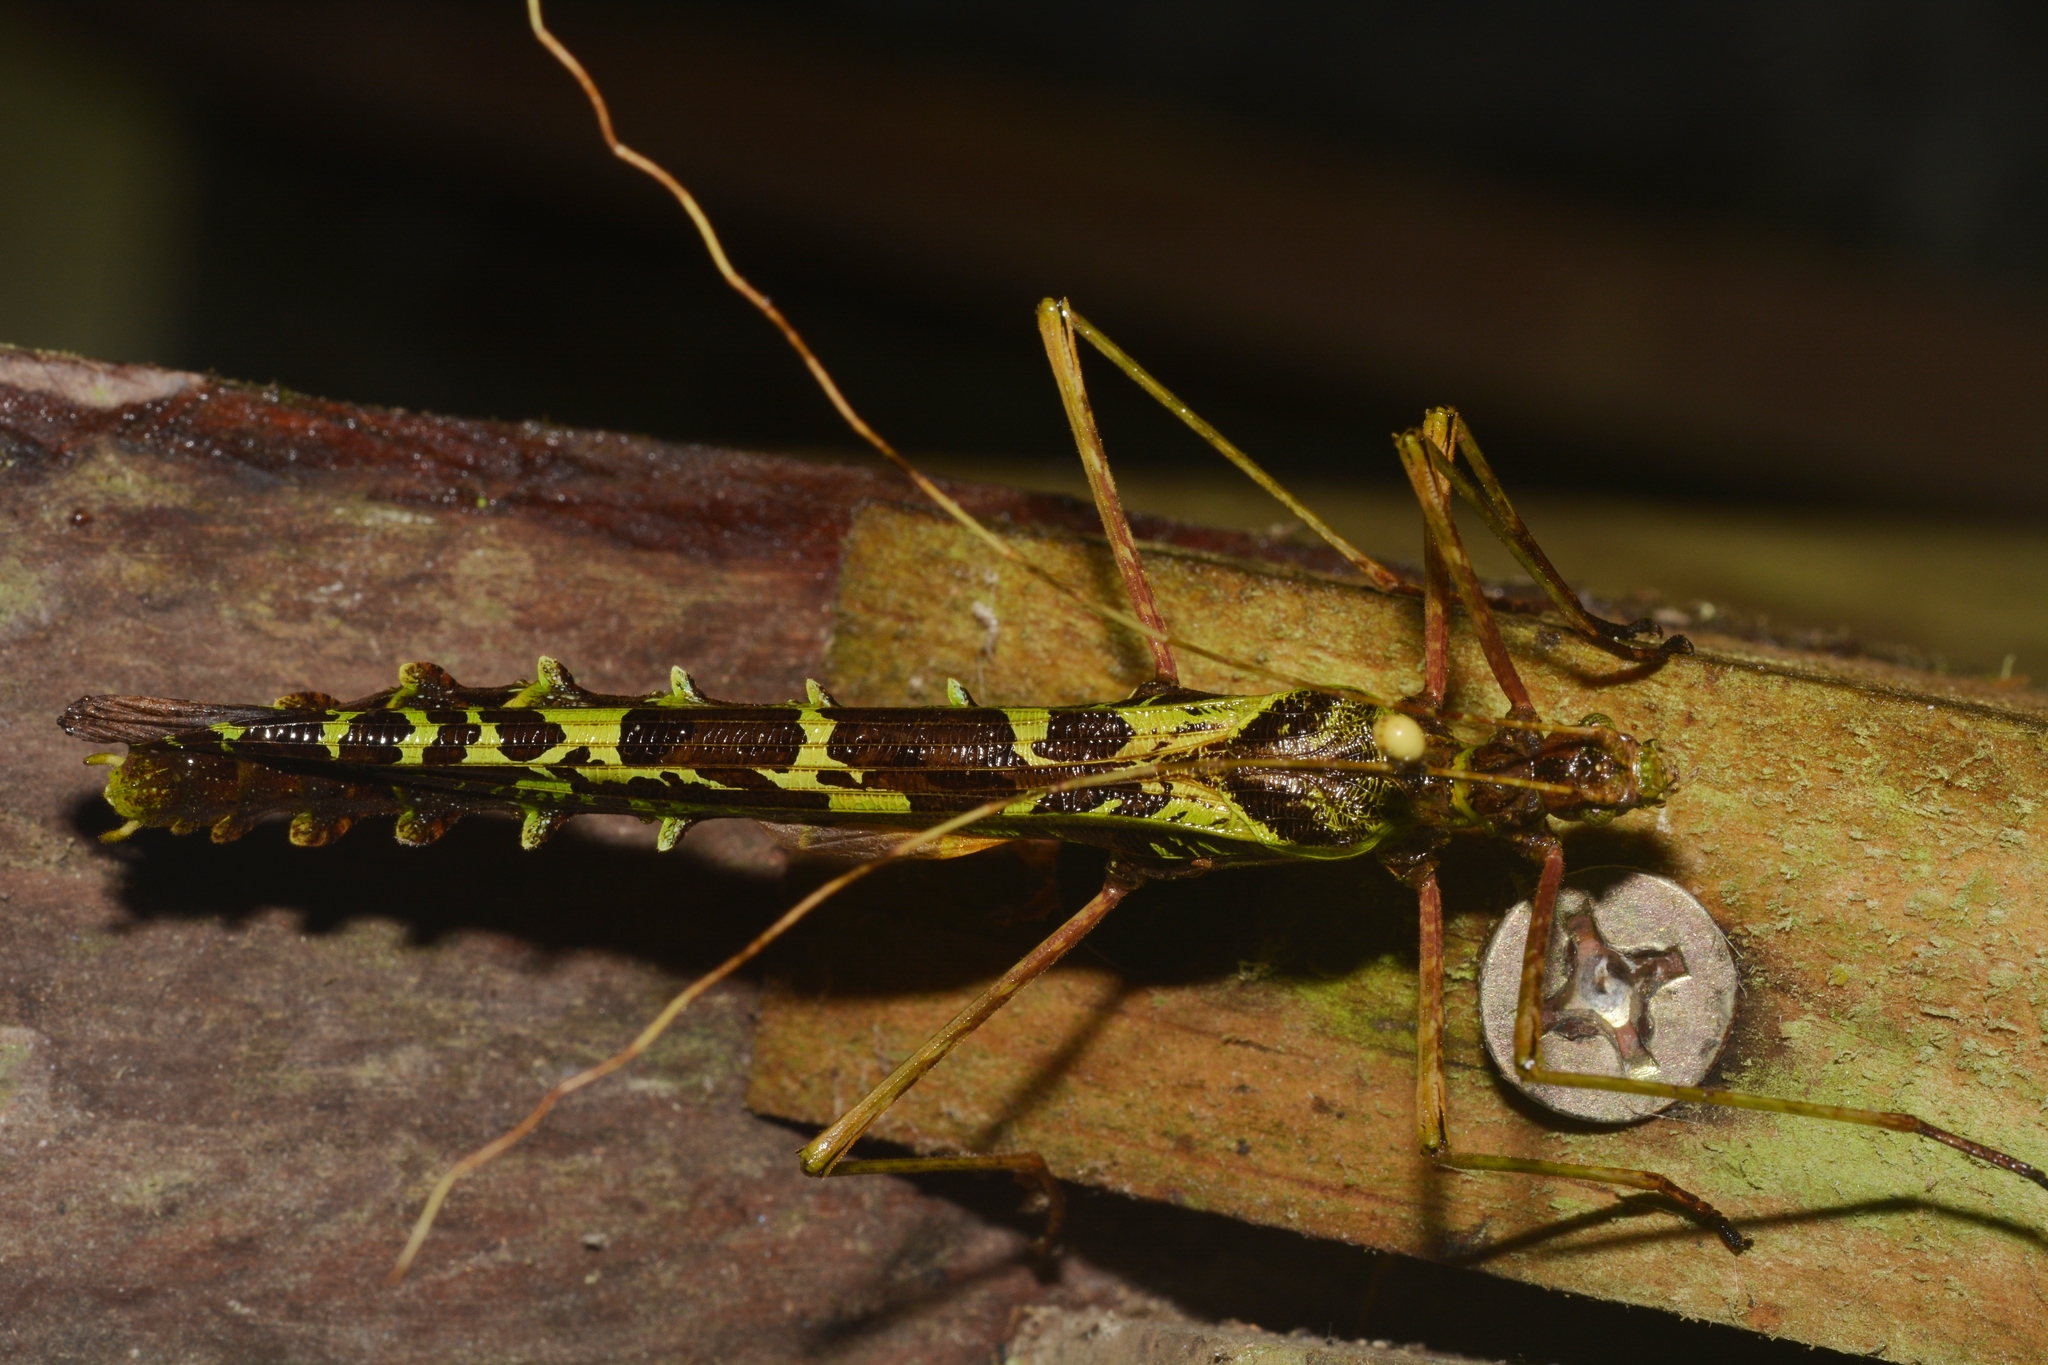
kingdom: Animalia
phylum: Arthropoda
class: Insecta
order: Phasmida
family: Pseudophasmatidae
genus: Stratocles
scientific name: Stratocles viridimaculatus
